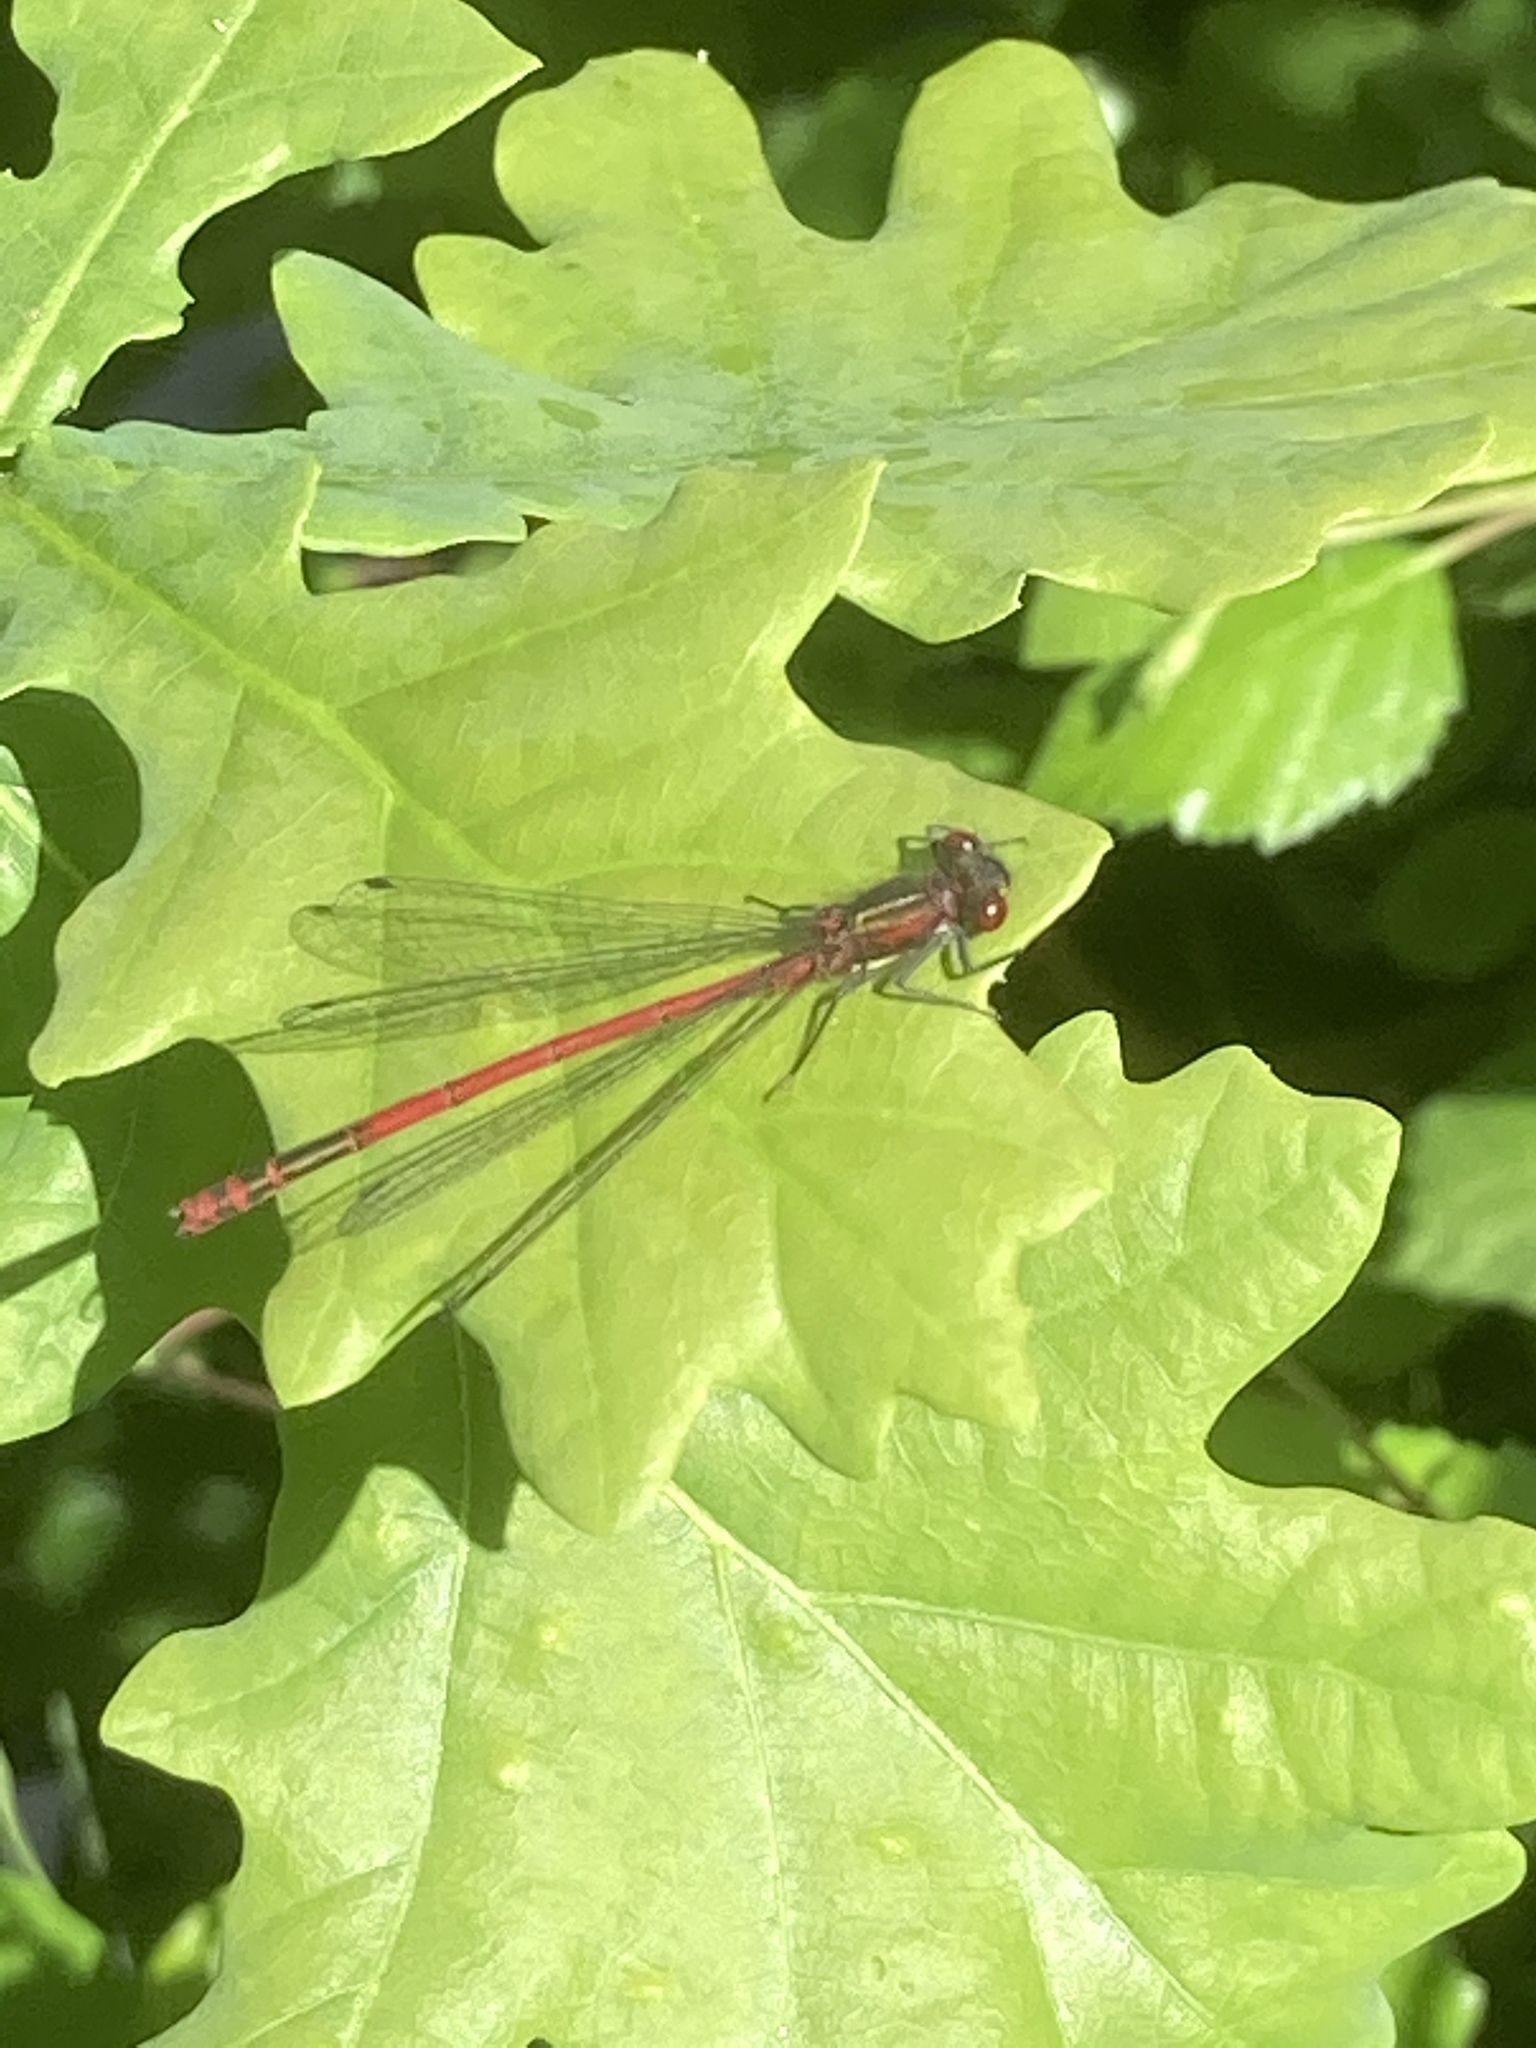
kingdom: Animalia
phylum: Arthropoda
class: Insecta
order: Odonata
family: Coenagrionidae
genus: Pyrrhosoma
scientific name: Pyrrhosoma nymphula
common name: Large red damsel
